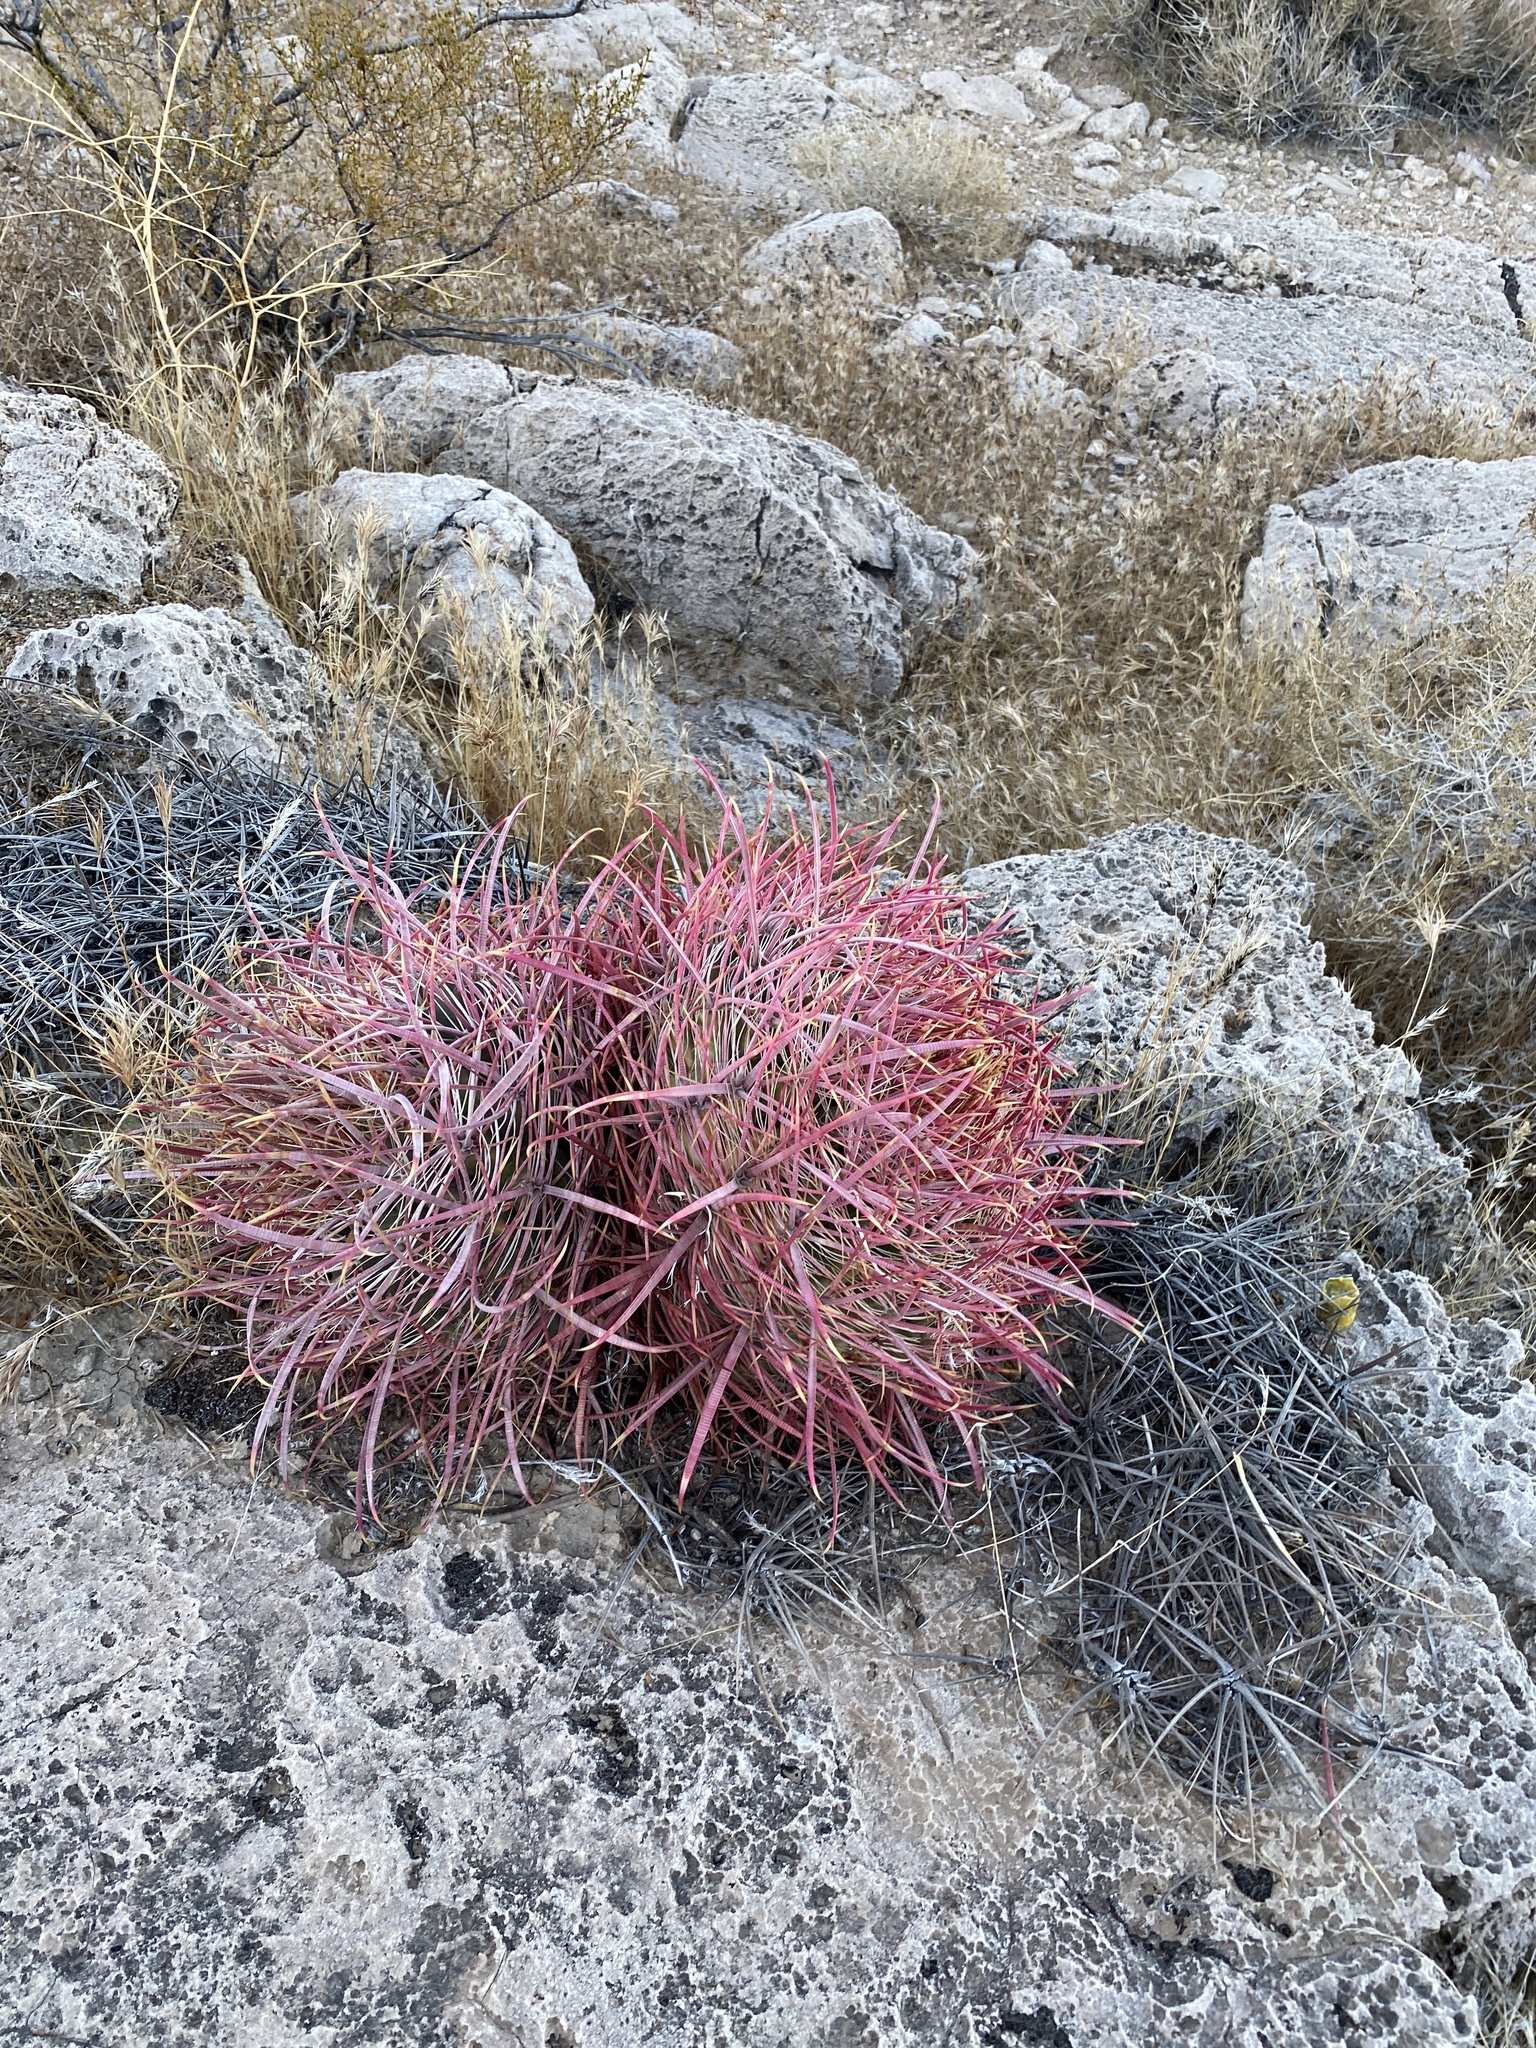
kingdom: Plantae
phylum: Tracheophyta
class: Magnoliopsida
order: Caryophyllales
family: Cactaceae
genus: Ferocactus
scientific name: Ferocactus cylindraceus
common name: California barrel cactus
